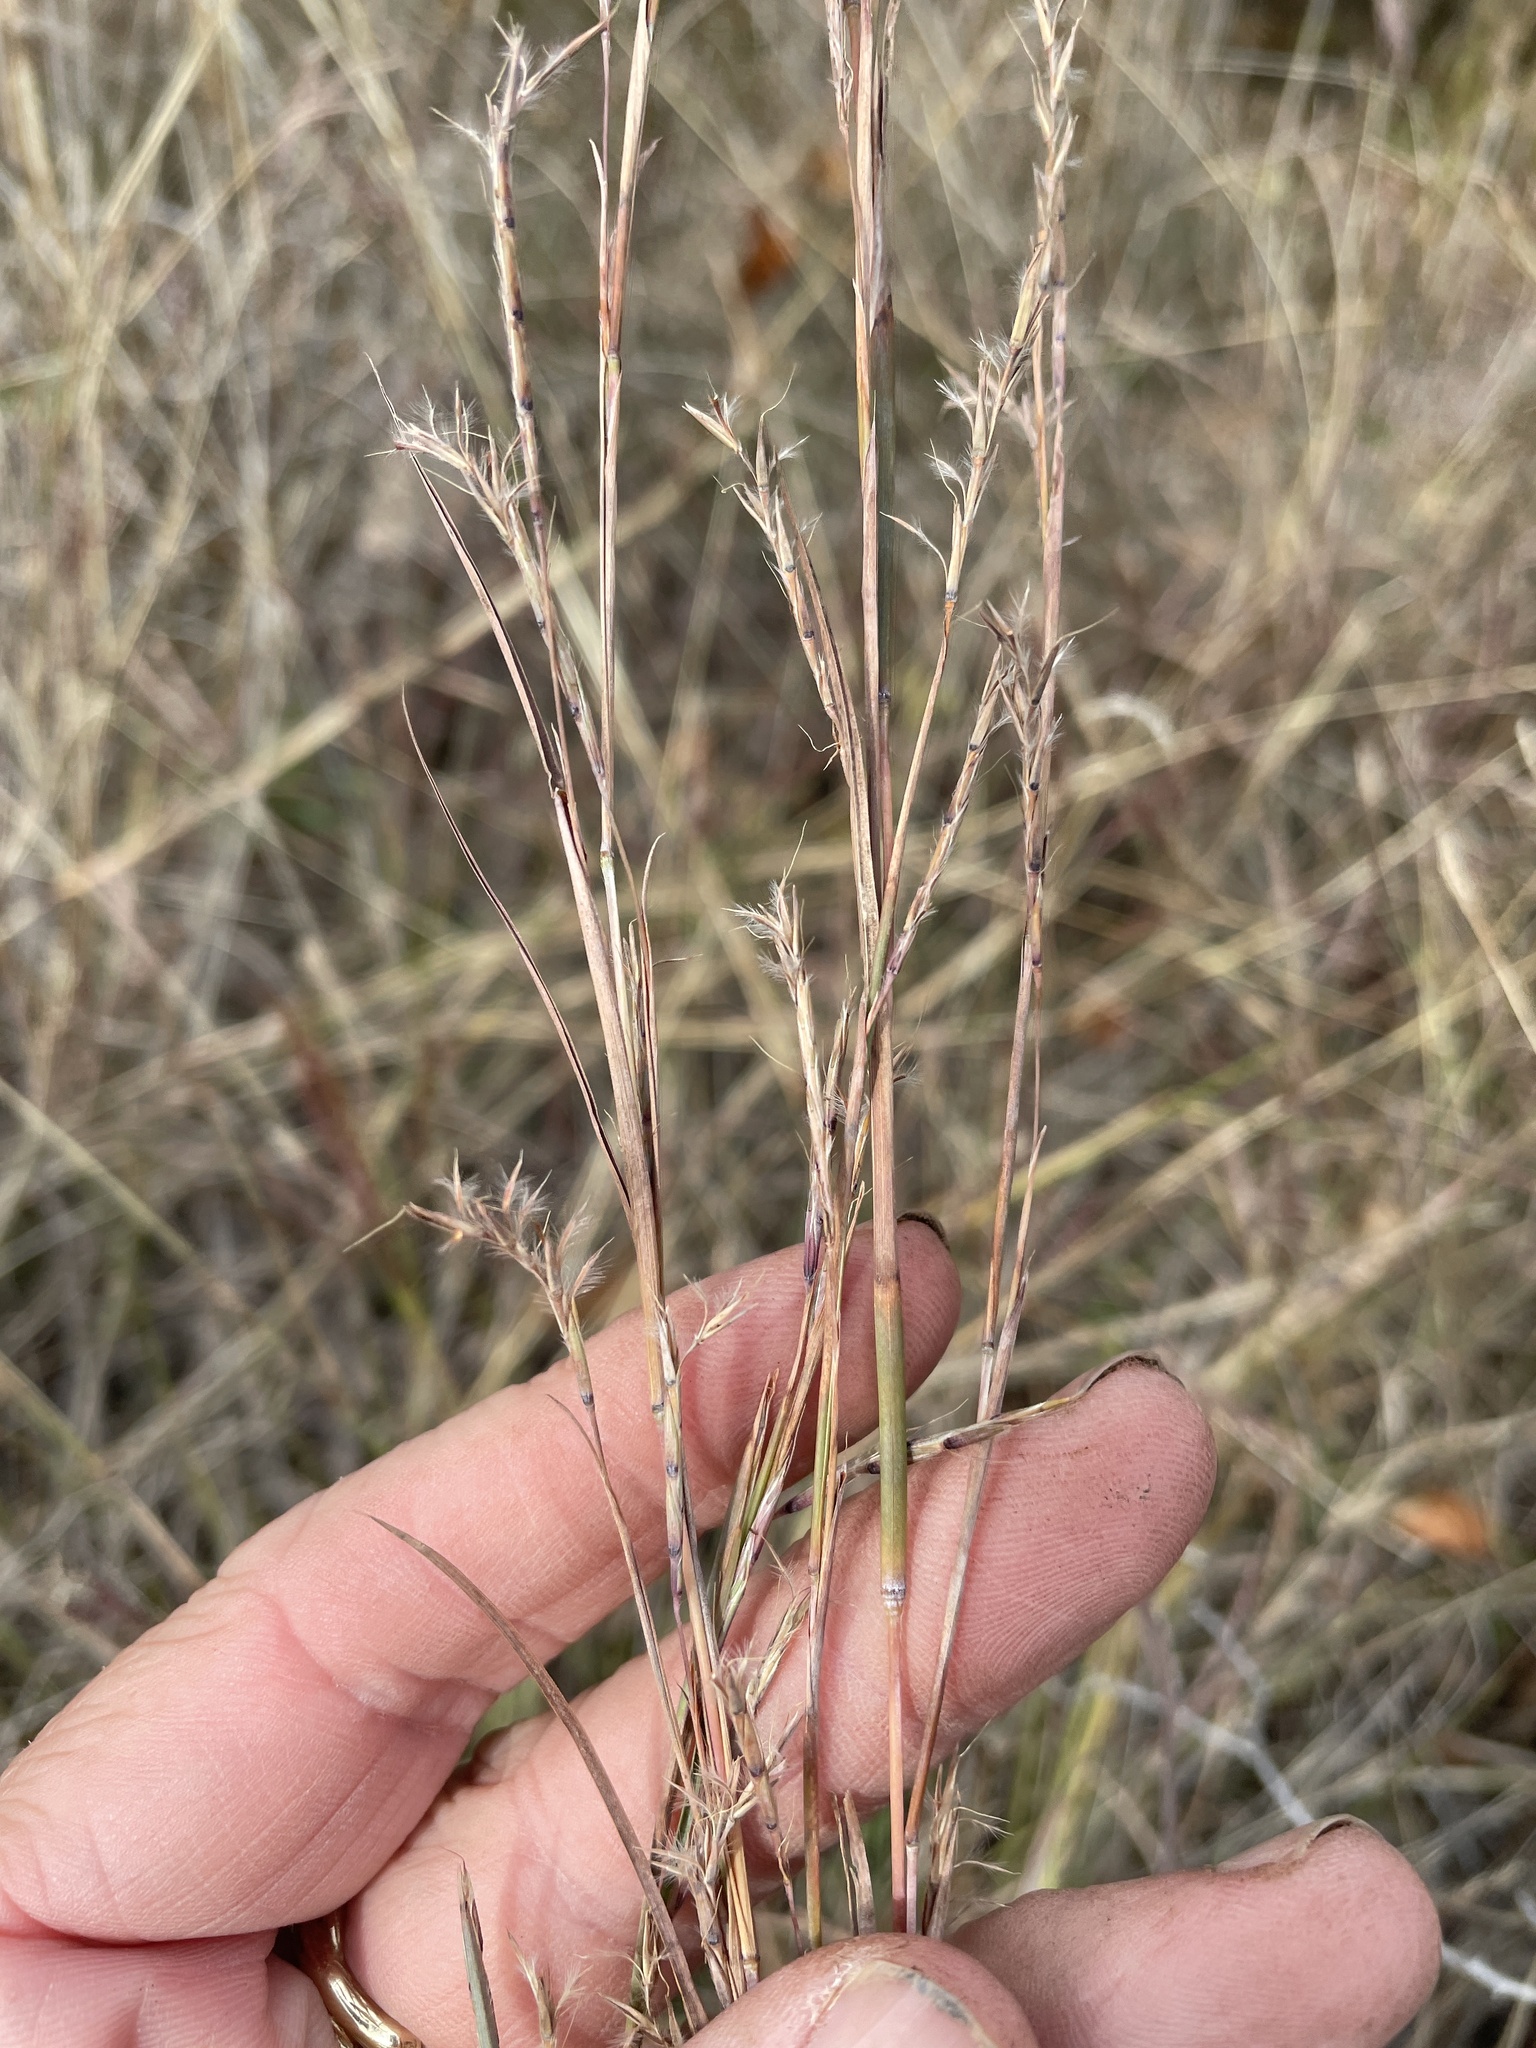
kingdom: Plantae
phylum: Tracheophyta
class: Liliopsida
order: Poales
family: Poaceae
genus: Schizachyrium
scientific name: Schizachyrium scoparium
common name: Little bluestem
